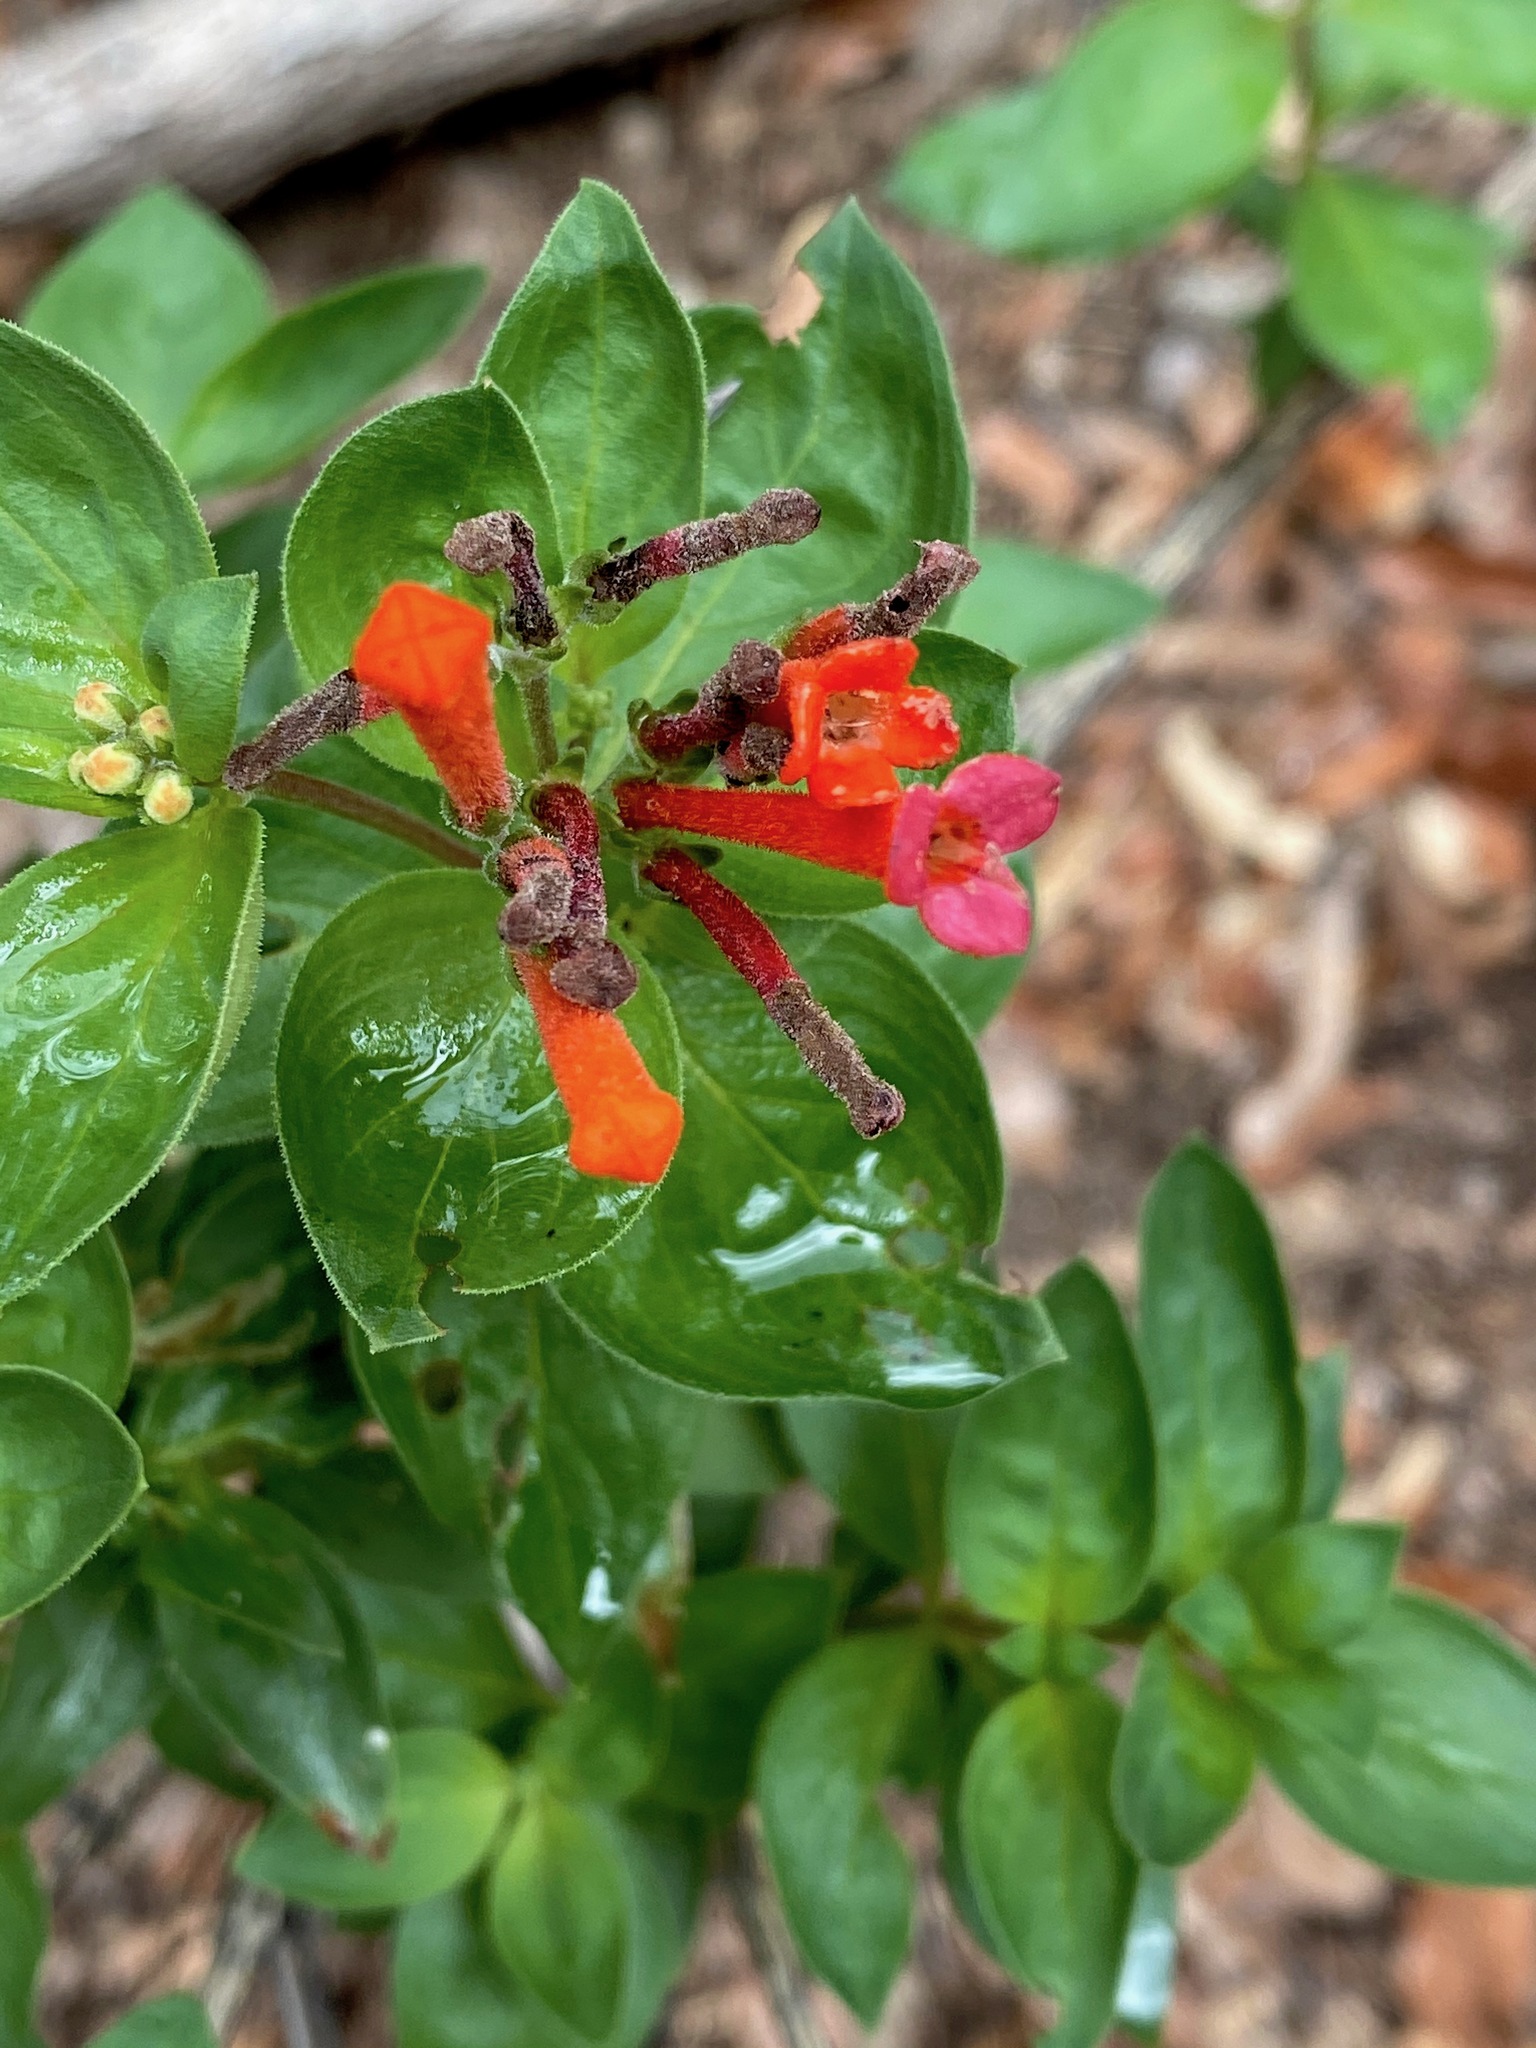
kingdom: Plantae
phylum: Tracheophyta
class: Magnoliopsida
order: Gentianales
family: Rubiaceae
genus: Bouvardia
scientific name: Bouvardia ternifolia
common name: Scarlet bouvardia
